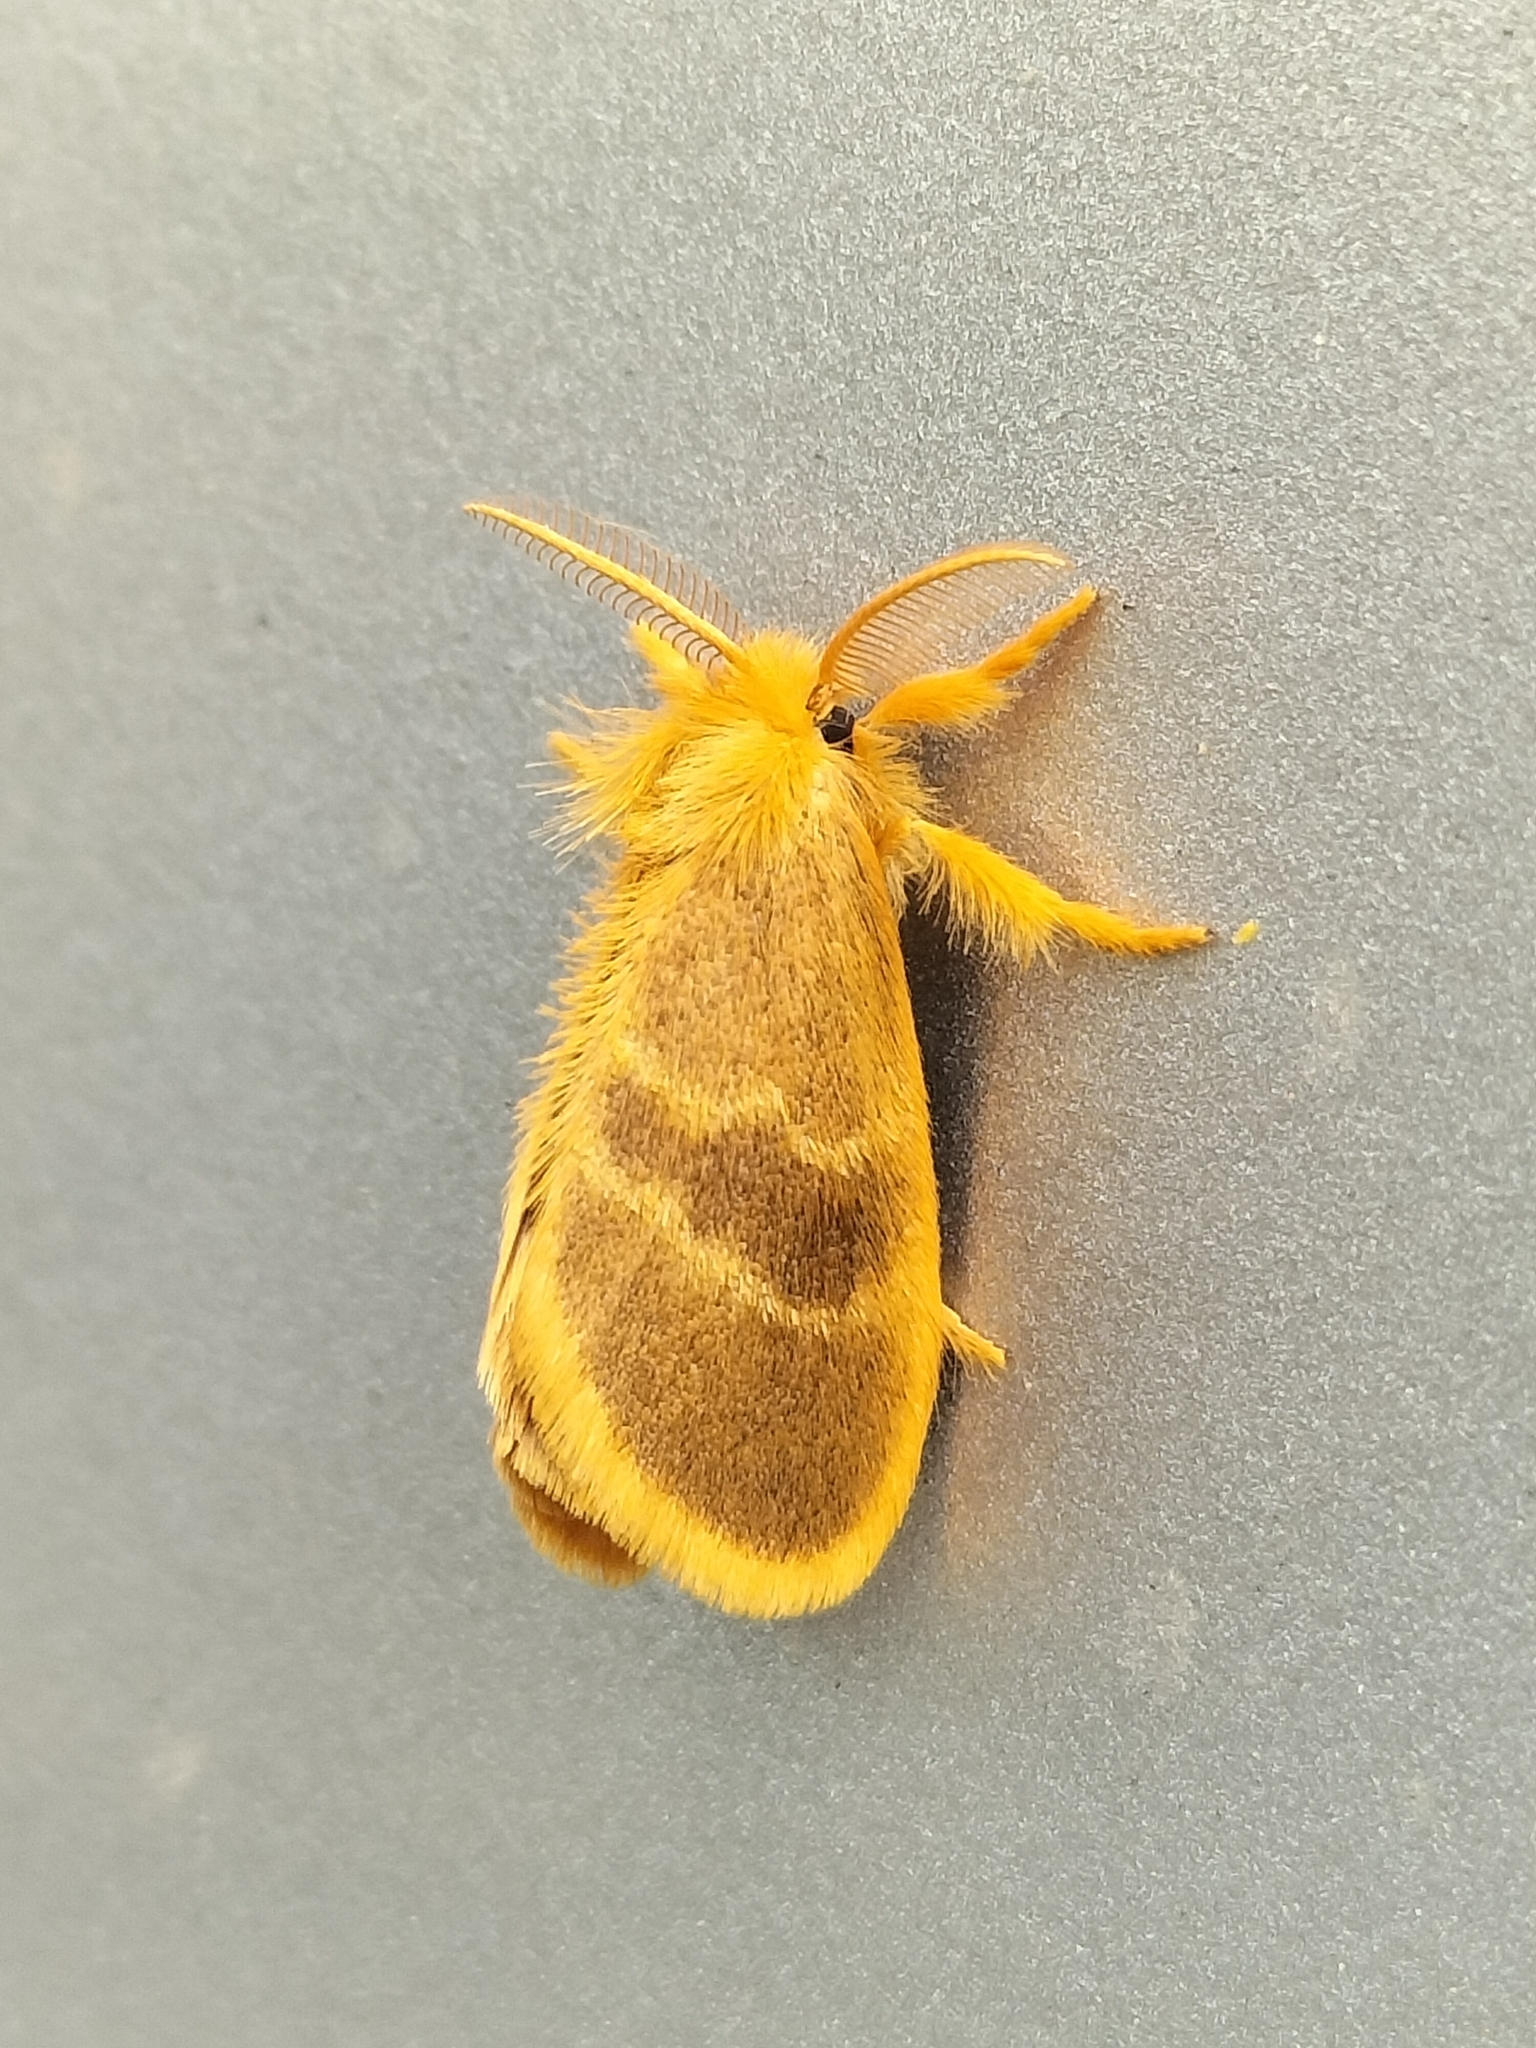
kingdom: Animalia
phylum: Arthropoda
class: Insecta
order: Lepidoptera
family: Erebidae
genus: Euproctis
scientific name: Euproctis lucifuga
